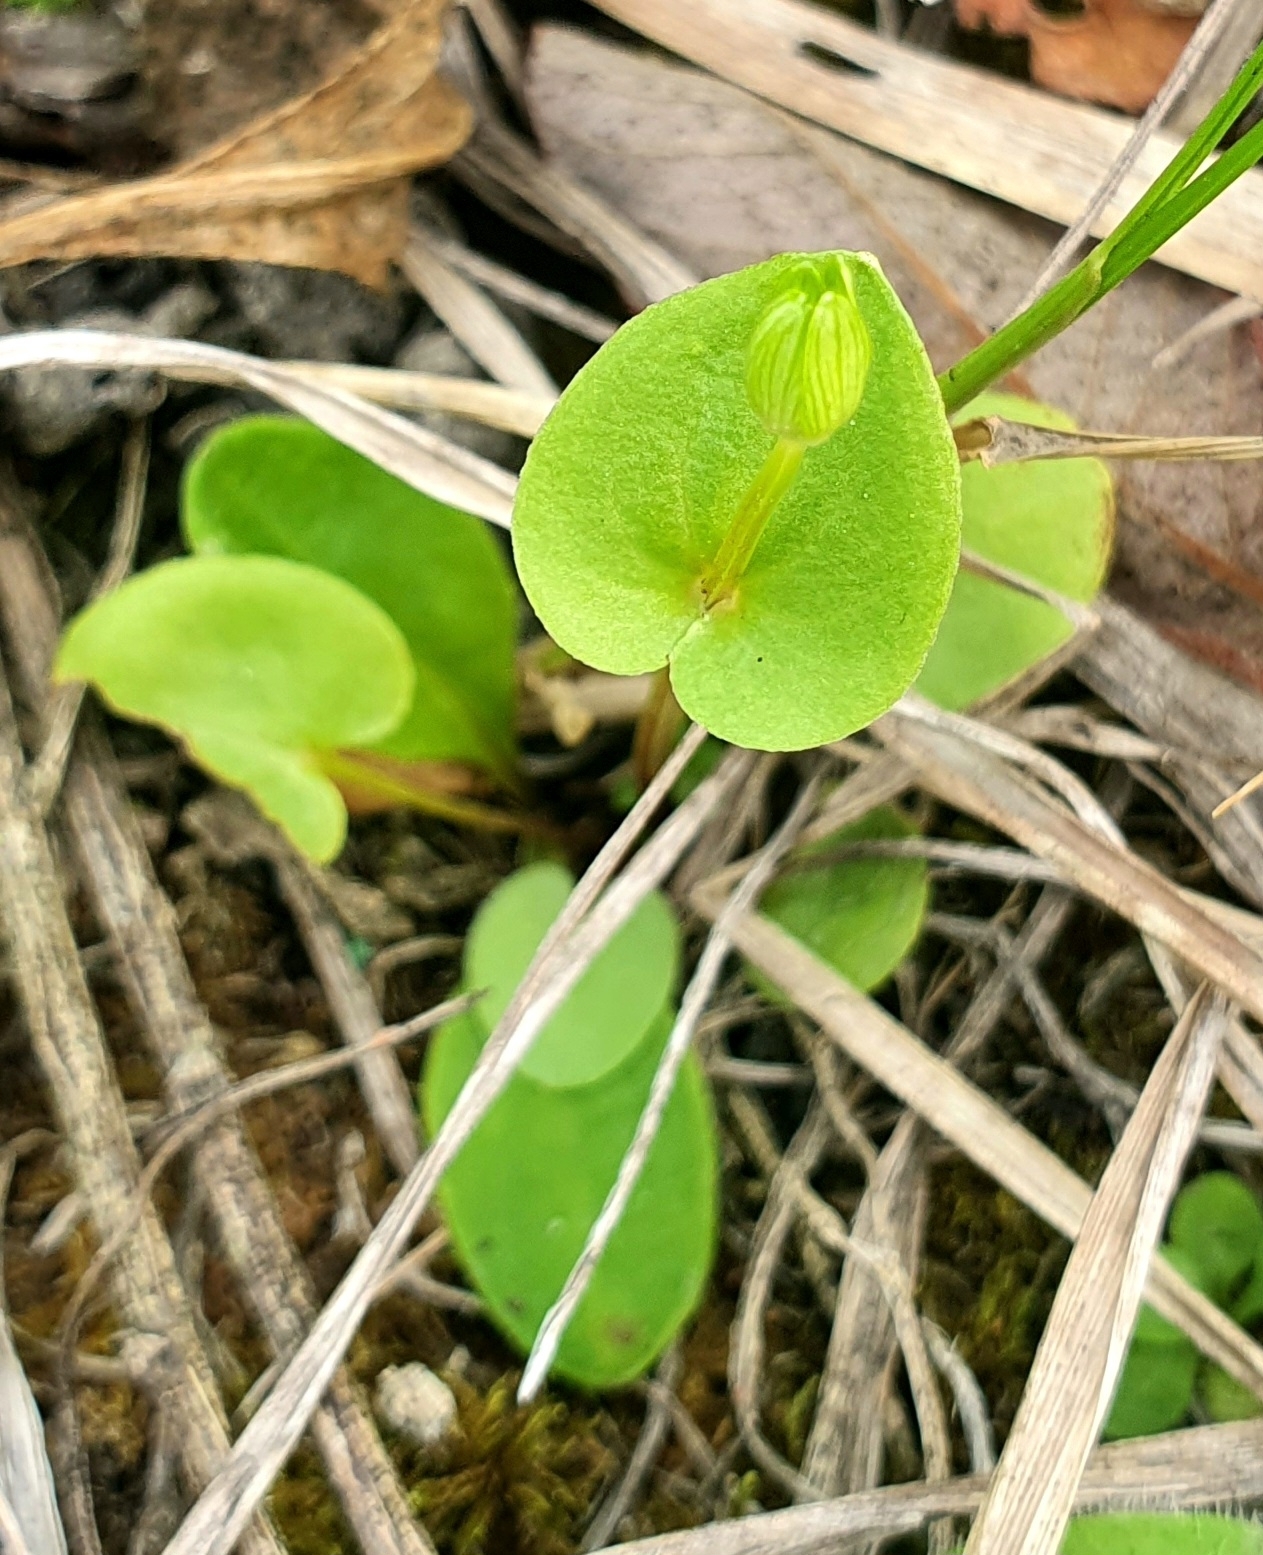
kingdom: Plantae
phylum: Tracheophyta
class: Magnoliopsida
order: Celastrales
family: Parnassiaceae
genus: Parnassia
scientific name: Parnassia palustris
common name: Grass-of-parnassus
